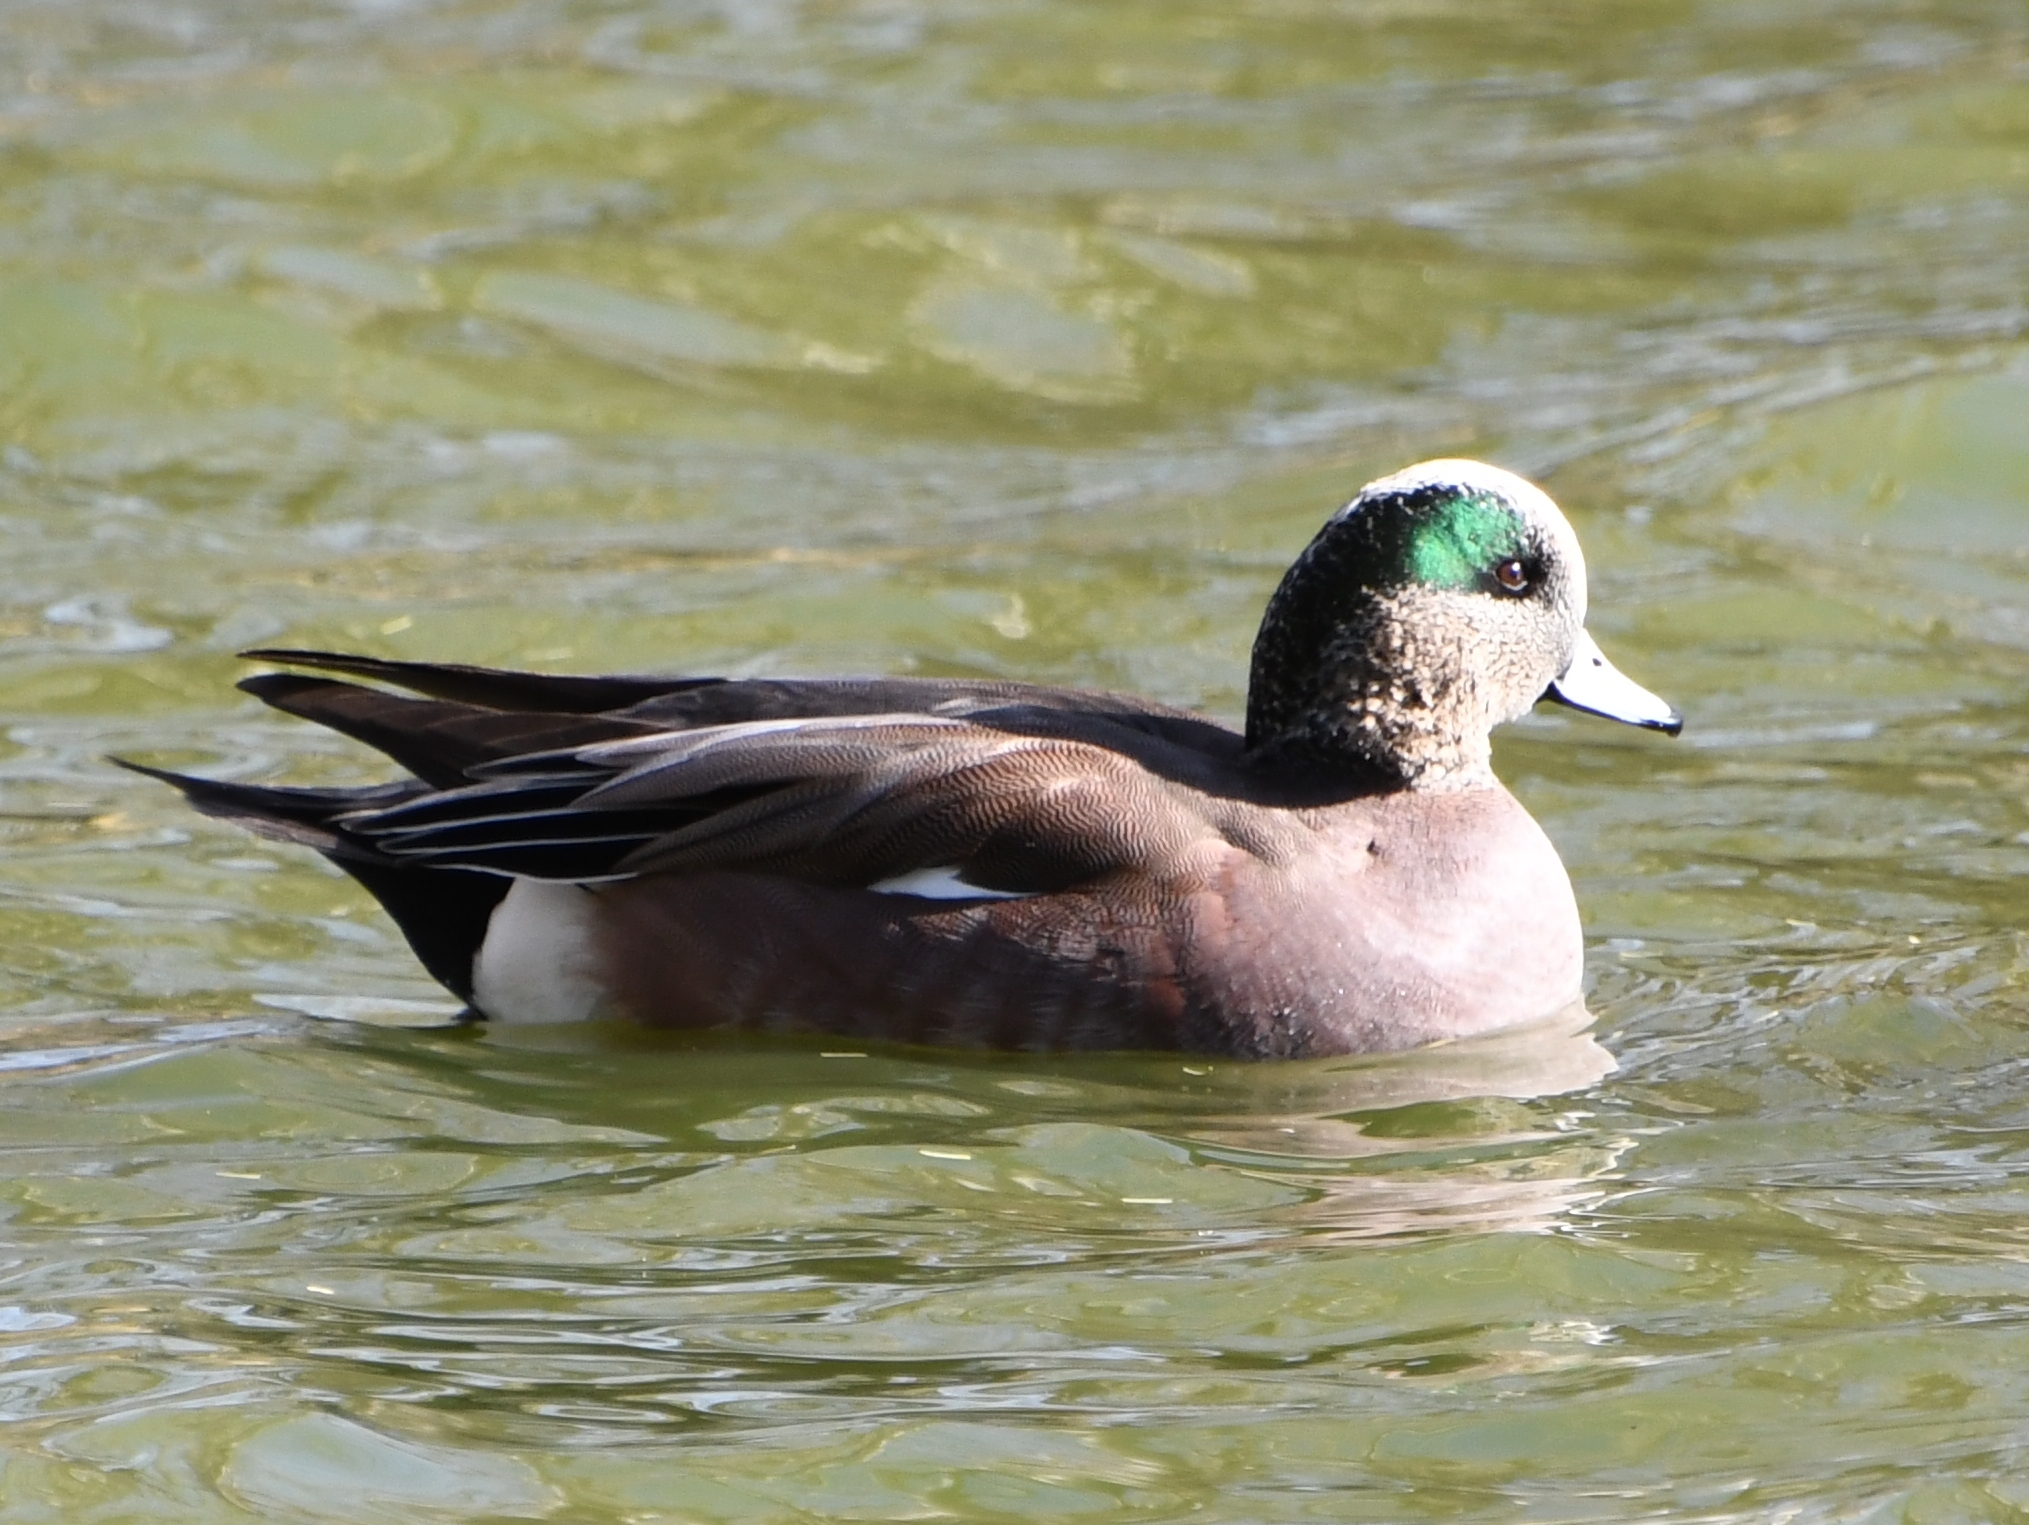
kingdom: Animalia
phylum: Chordata
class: Aves
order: Anseriformes
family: Anatidae
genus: Mareca
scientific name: Mareca americana
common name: American wigeon
